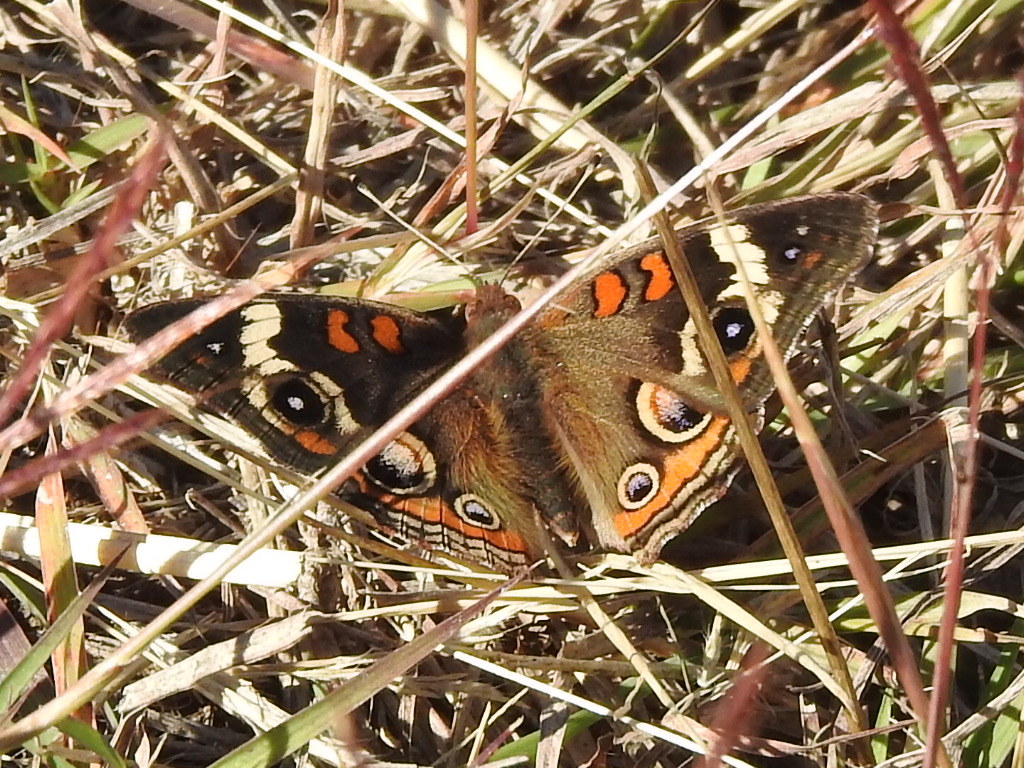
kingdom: Animalia
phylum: Arthropoda
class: Insecta
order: Lepidoptera
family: Nymphalidae
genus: Junonia
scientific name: Junonia coenia
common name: Common buckeye
